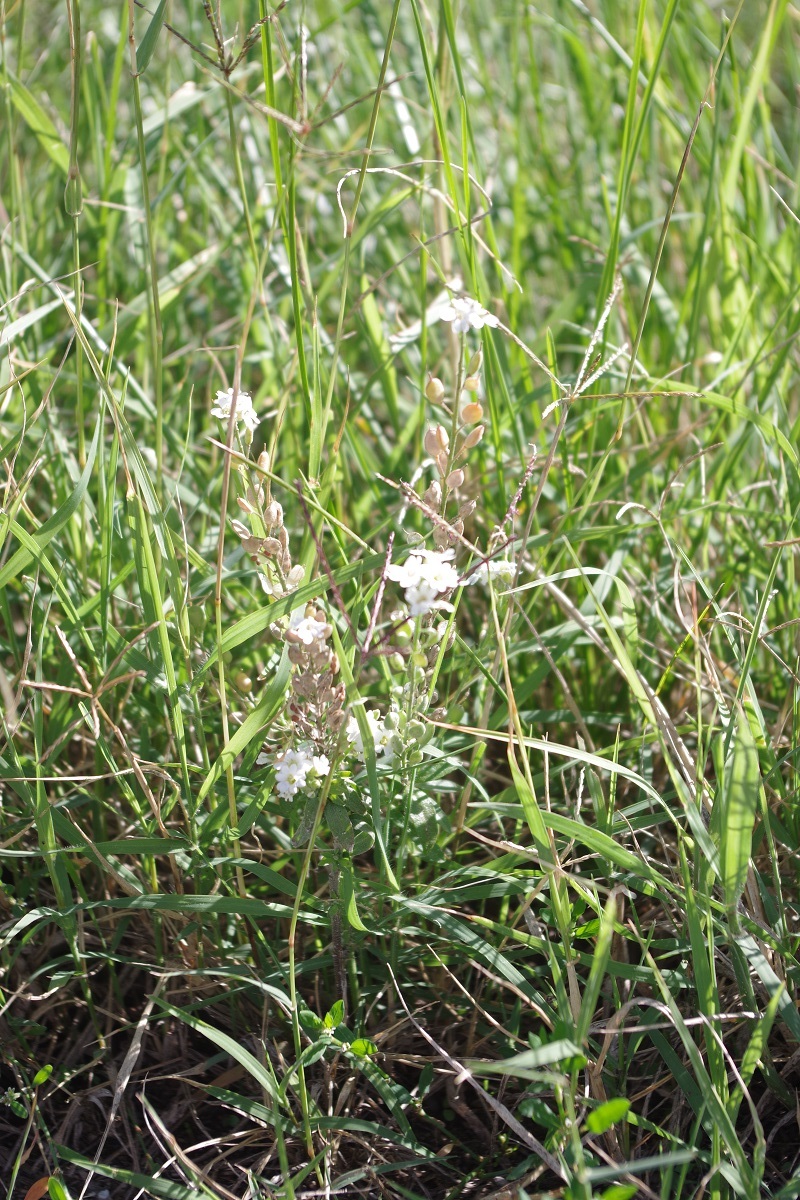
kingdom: Plantae
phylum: Tracheophyta
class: Magnoliopsida
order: Brassicales
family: Brassicaceae
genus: Berteroa
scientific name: Berteroa incana
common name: Hoary alison
